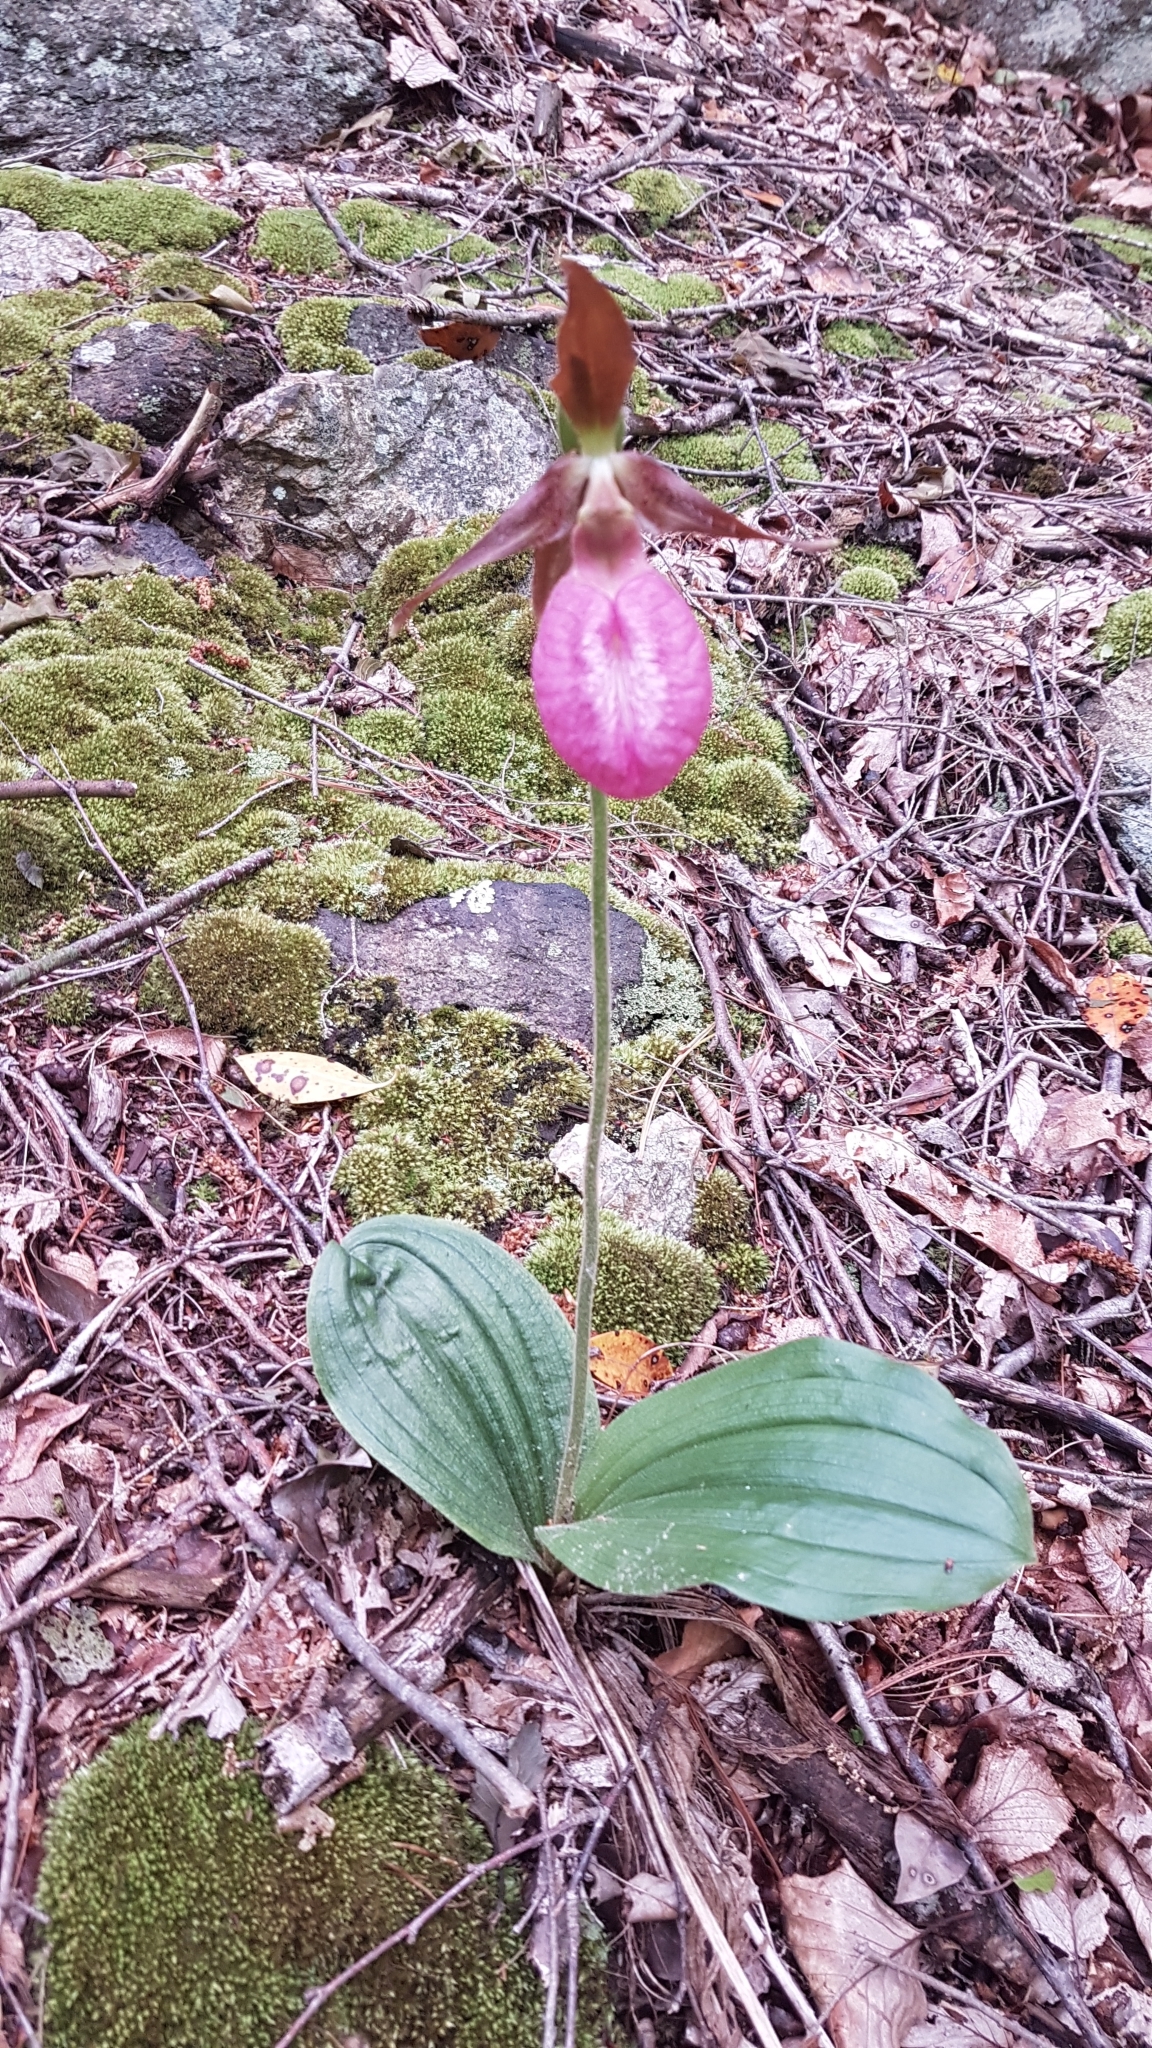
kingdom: Plantae
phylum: Tracheophyta
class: Liliopsida
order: Asparagales
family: Orchidaceae
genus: Cypripedium
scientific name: Cypripedium acaule
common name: Pink lady's-slipper
